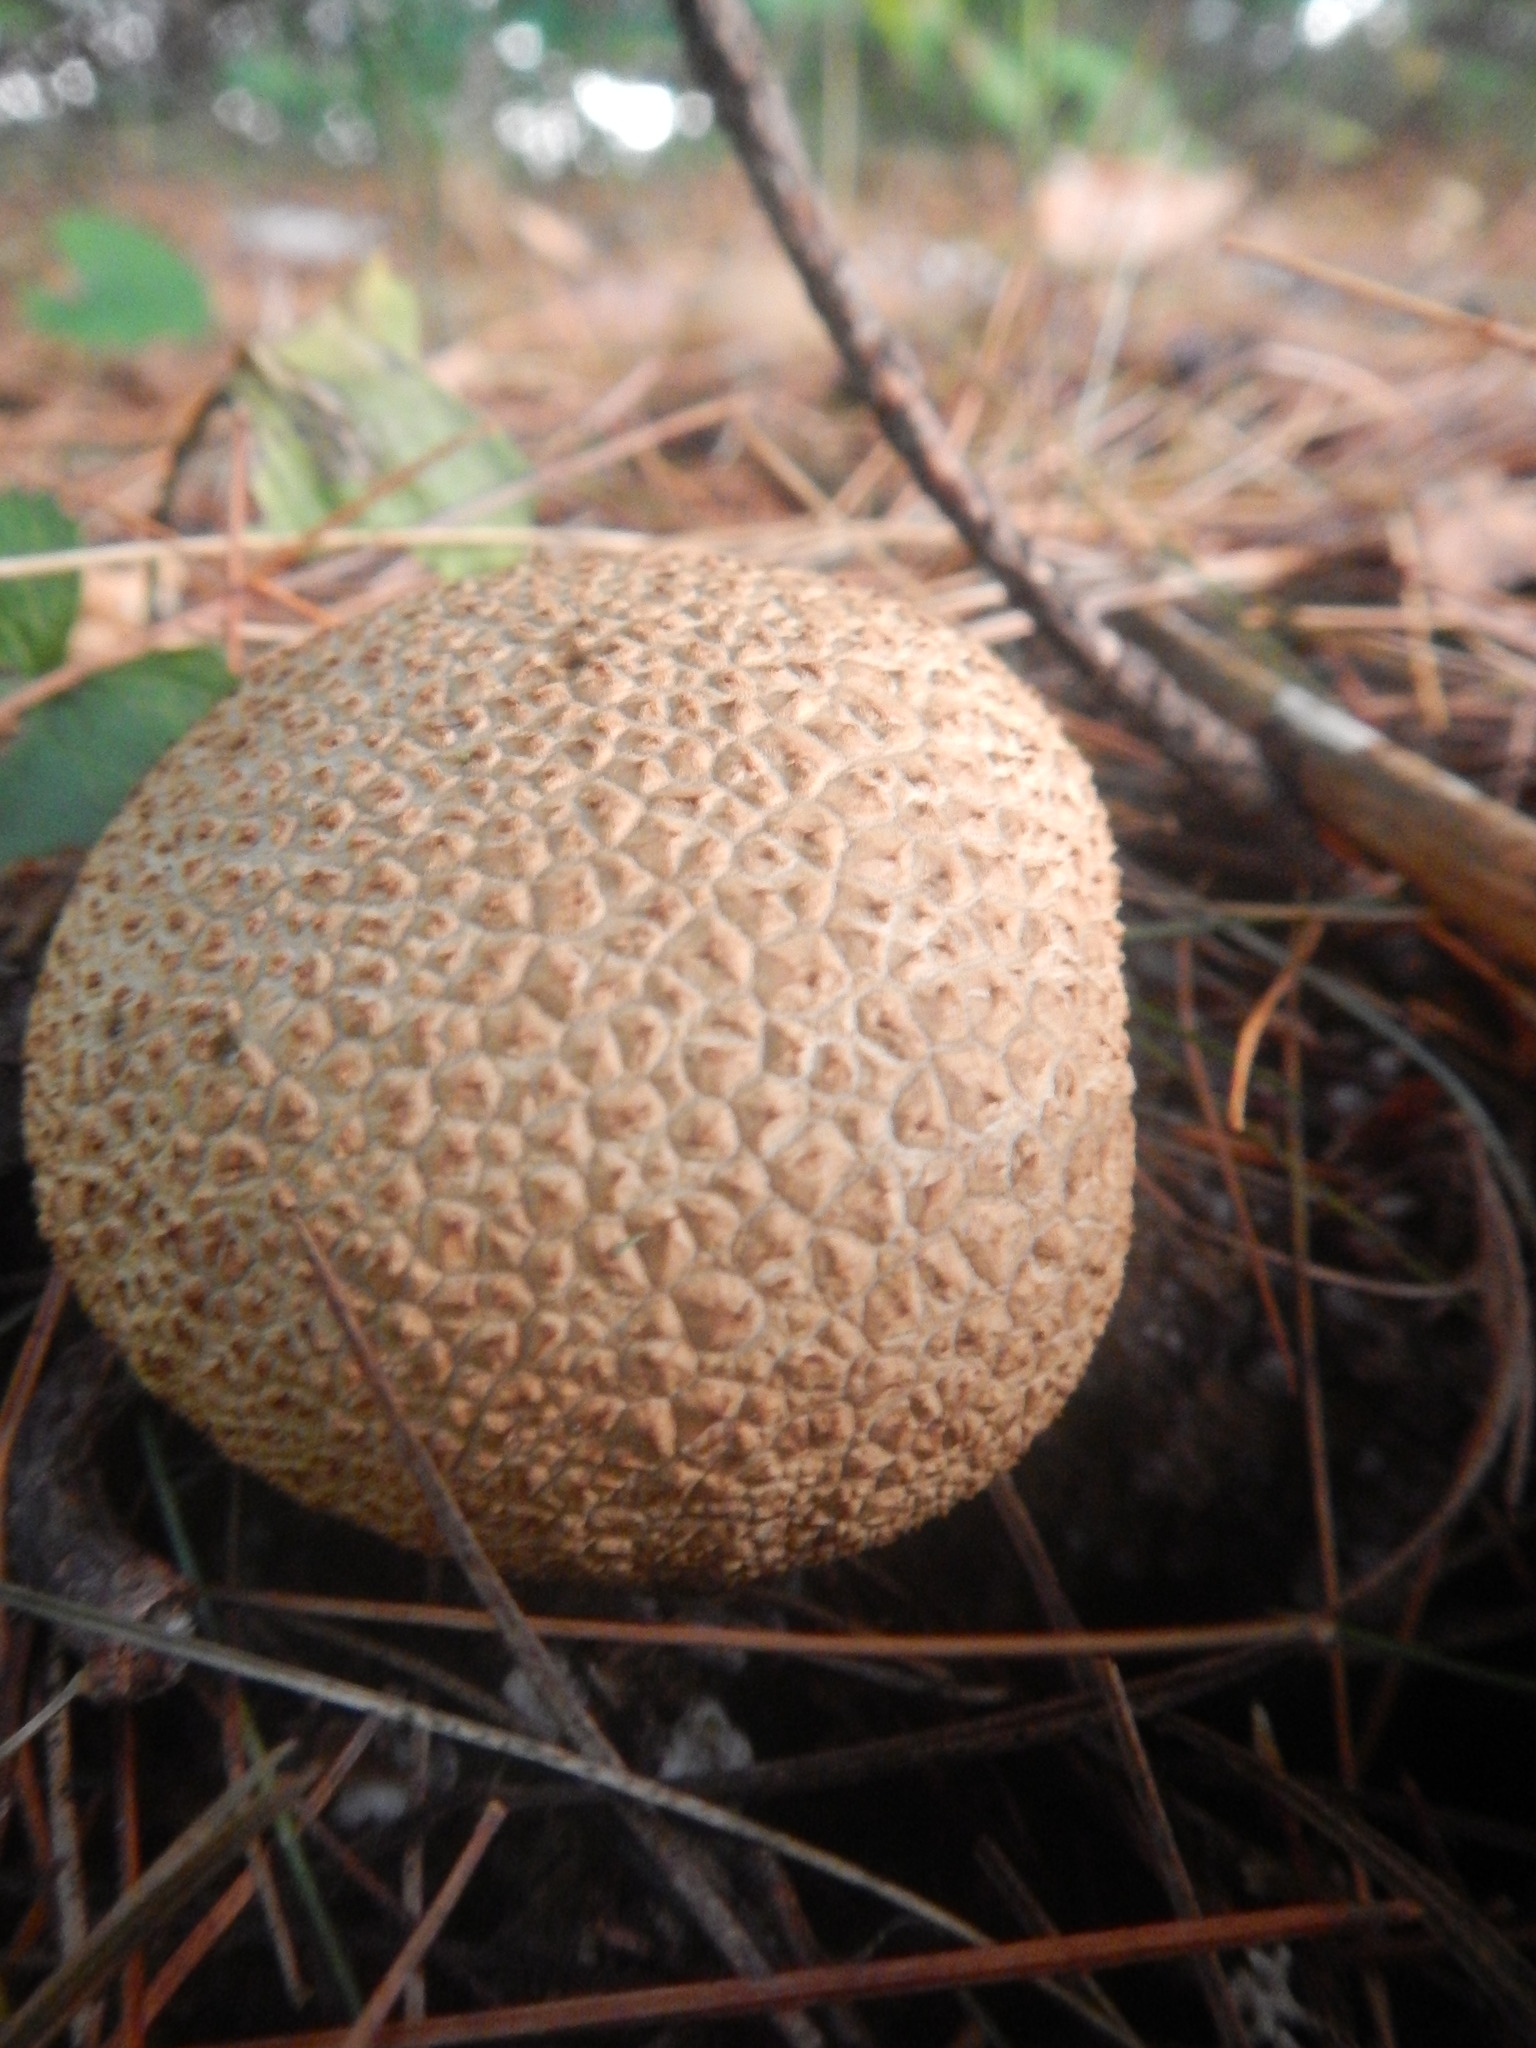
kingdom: Fungi
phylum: Basidiomycota
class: Agaricomycetes
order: Boletales
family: Sclerodermataceae
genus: Scleroderma
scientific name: Scleroderma citrinum
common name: Common earthball
